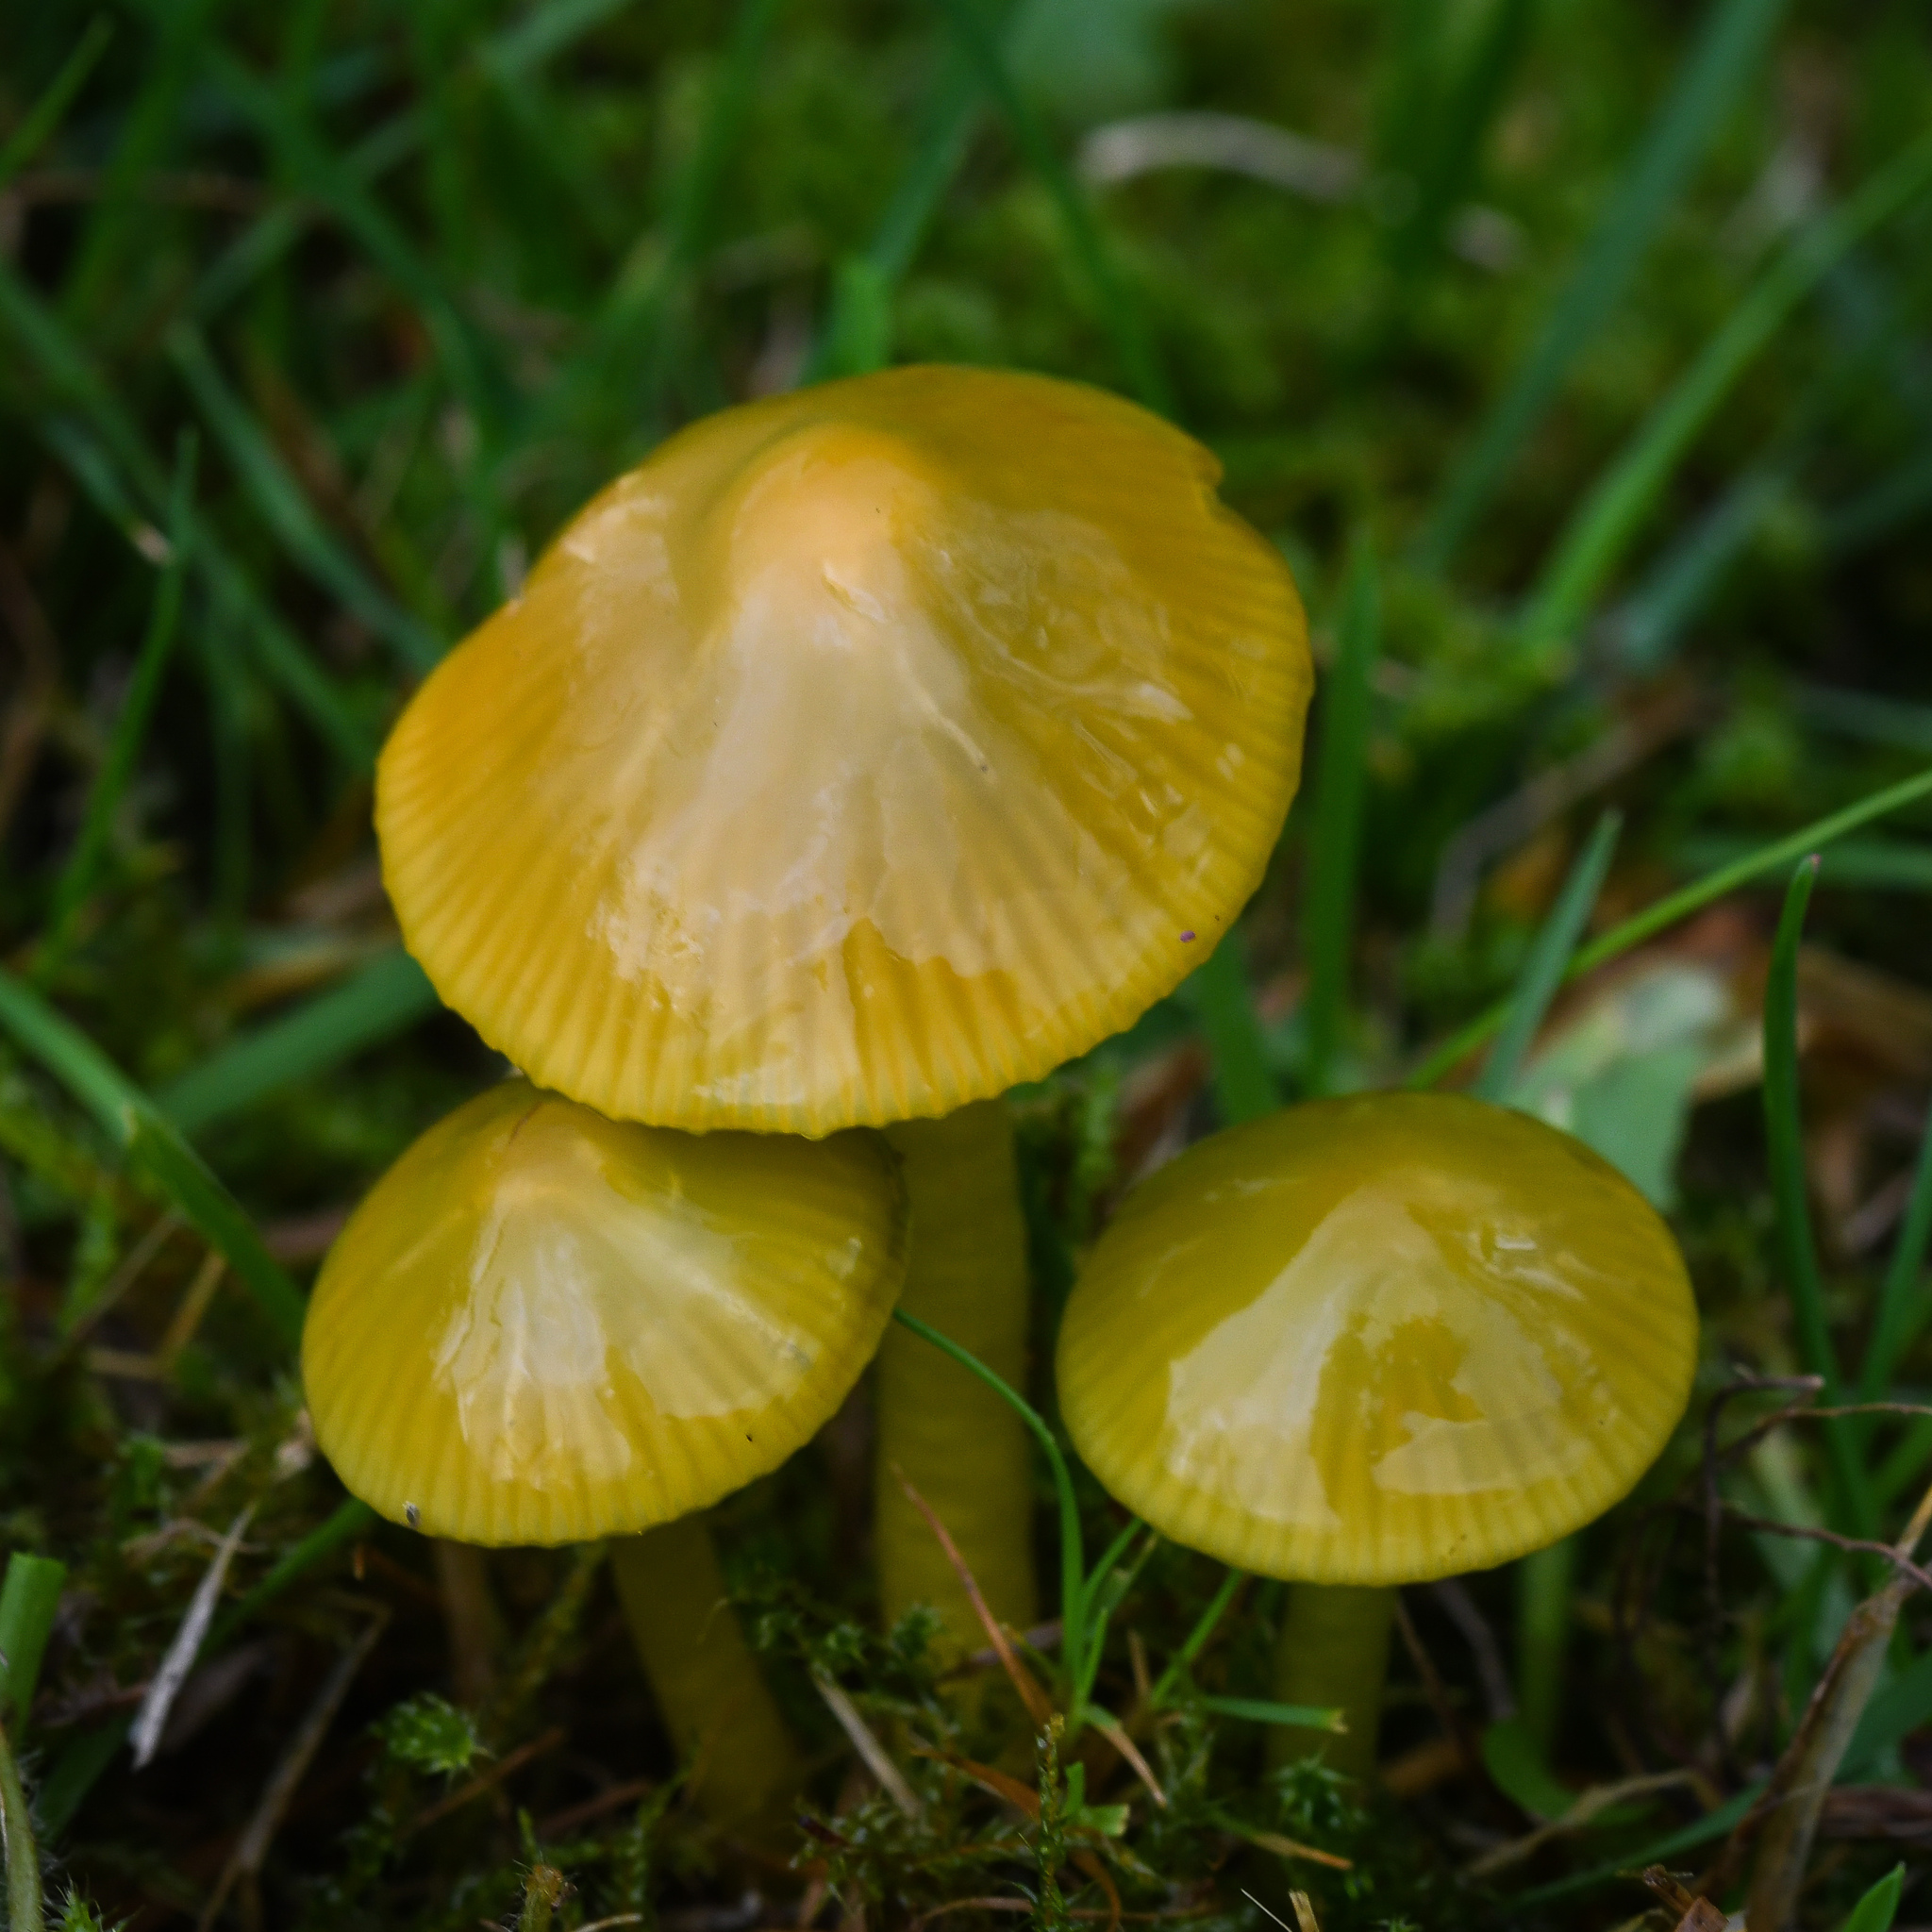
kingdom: Fungi
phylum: Basidiomycota
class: Agaricomycetes
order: Agaricales
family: Hygrophoraceae
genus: Gliophorus
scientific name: Gliophorus psittacinus
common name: Parrot wax-cap
